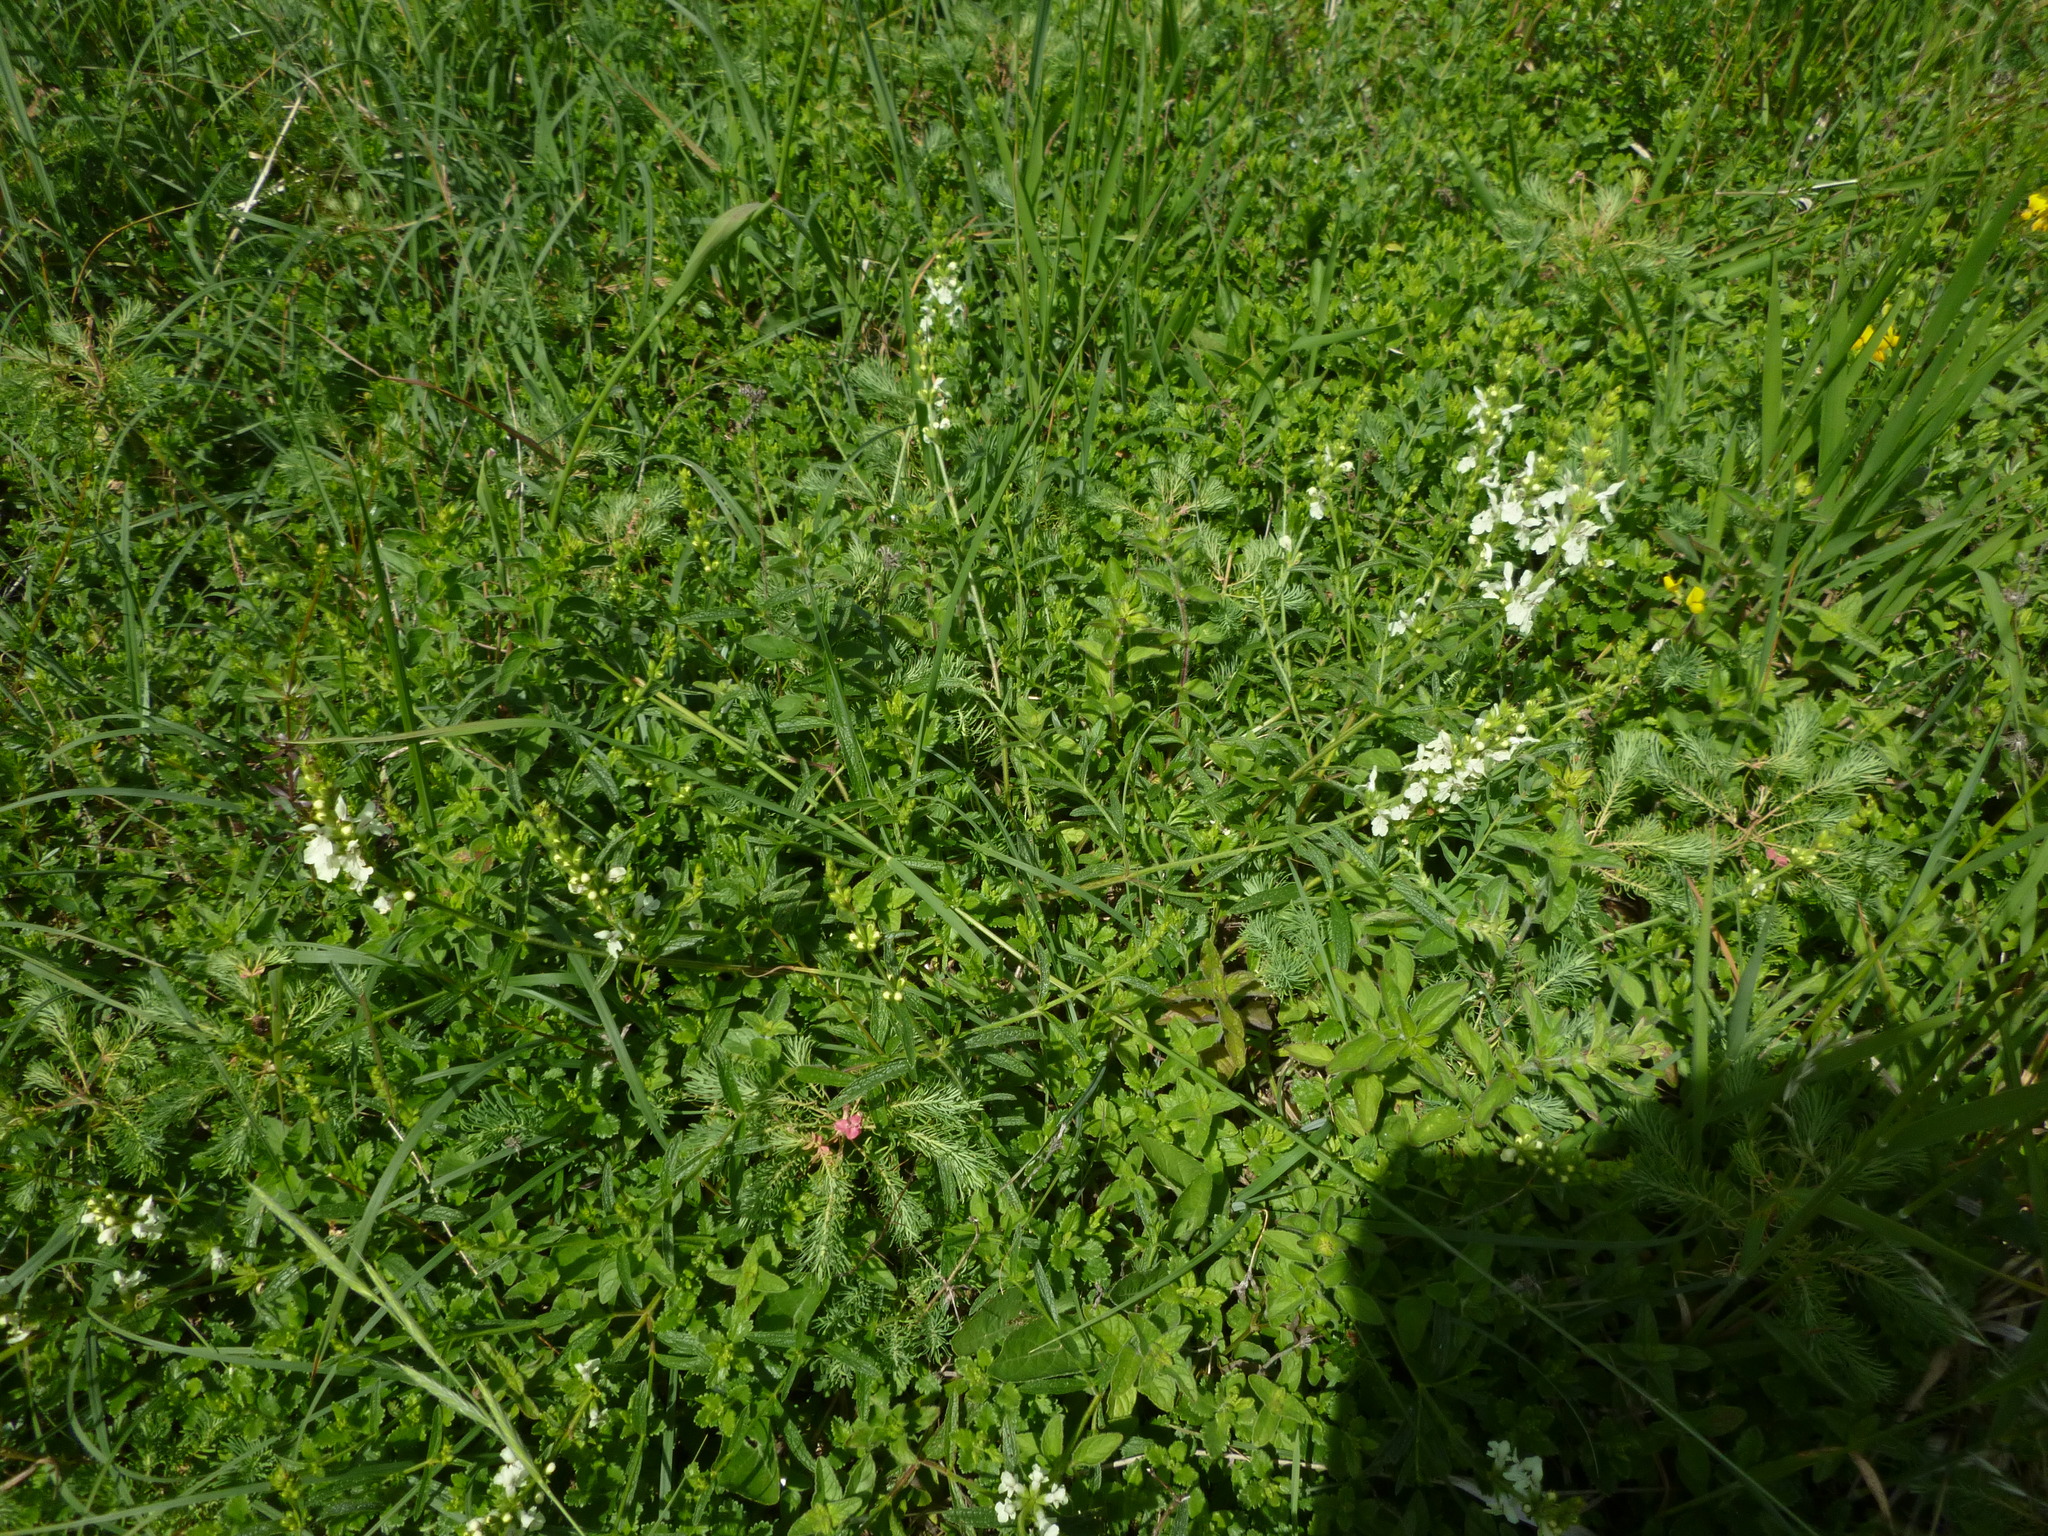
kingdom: Plantae
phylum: Tracheophyta
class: Magnoliopsida
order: Lamiales
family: Lamiaceae
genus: Stachys
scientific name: Stachys recta
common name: Perennial yellow-woundwort
